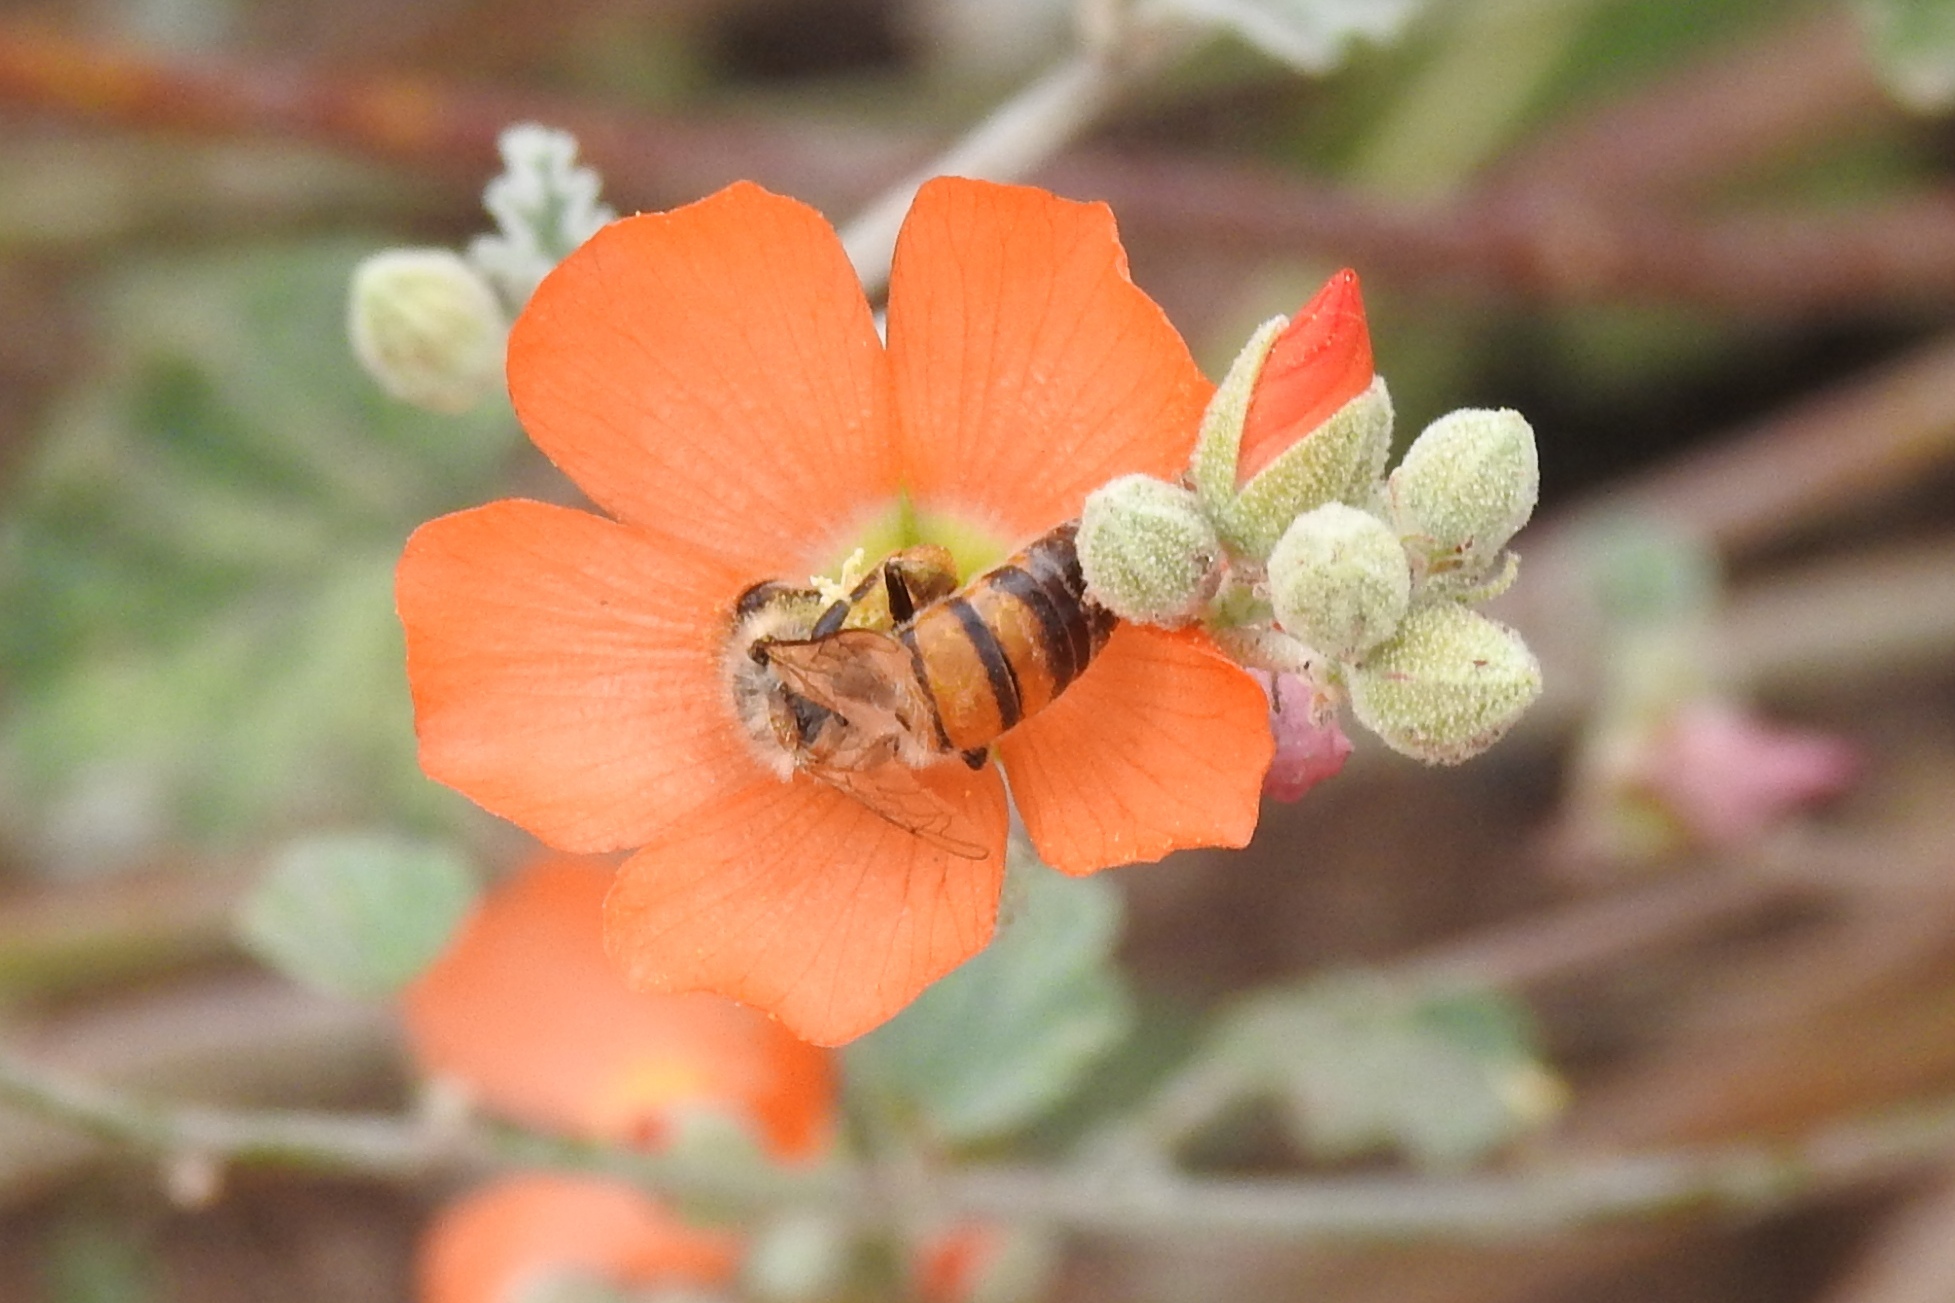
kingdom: Animalia
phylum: Arthropoda
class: Insecta
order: Hymenoptera
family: Apidae
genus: Apis
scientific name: Apis mellifera
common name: Honey bee
